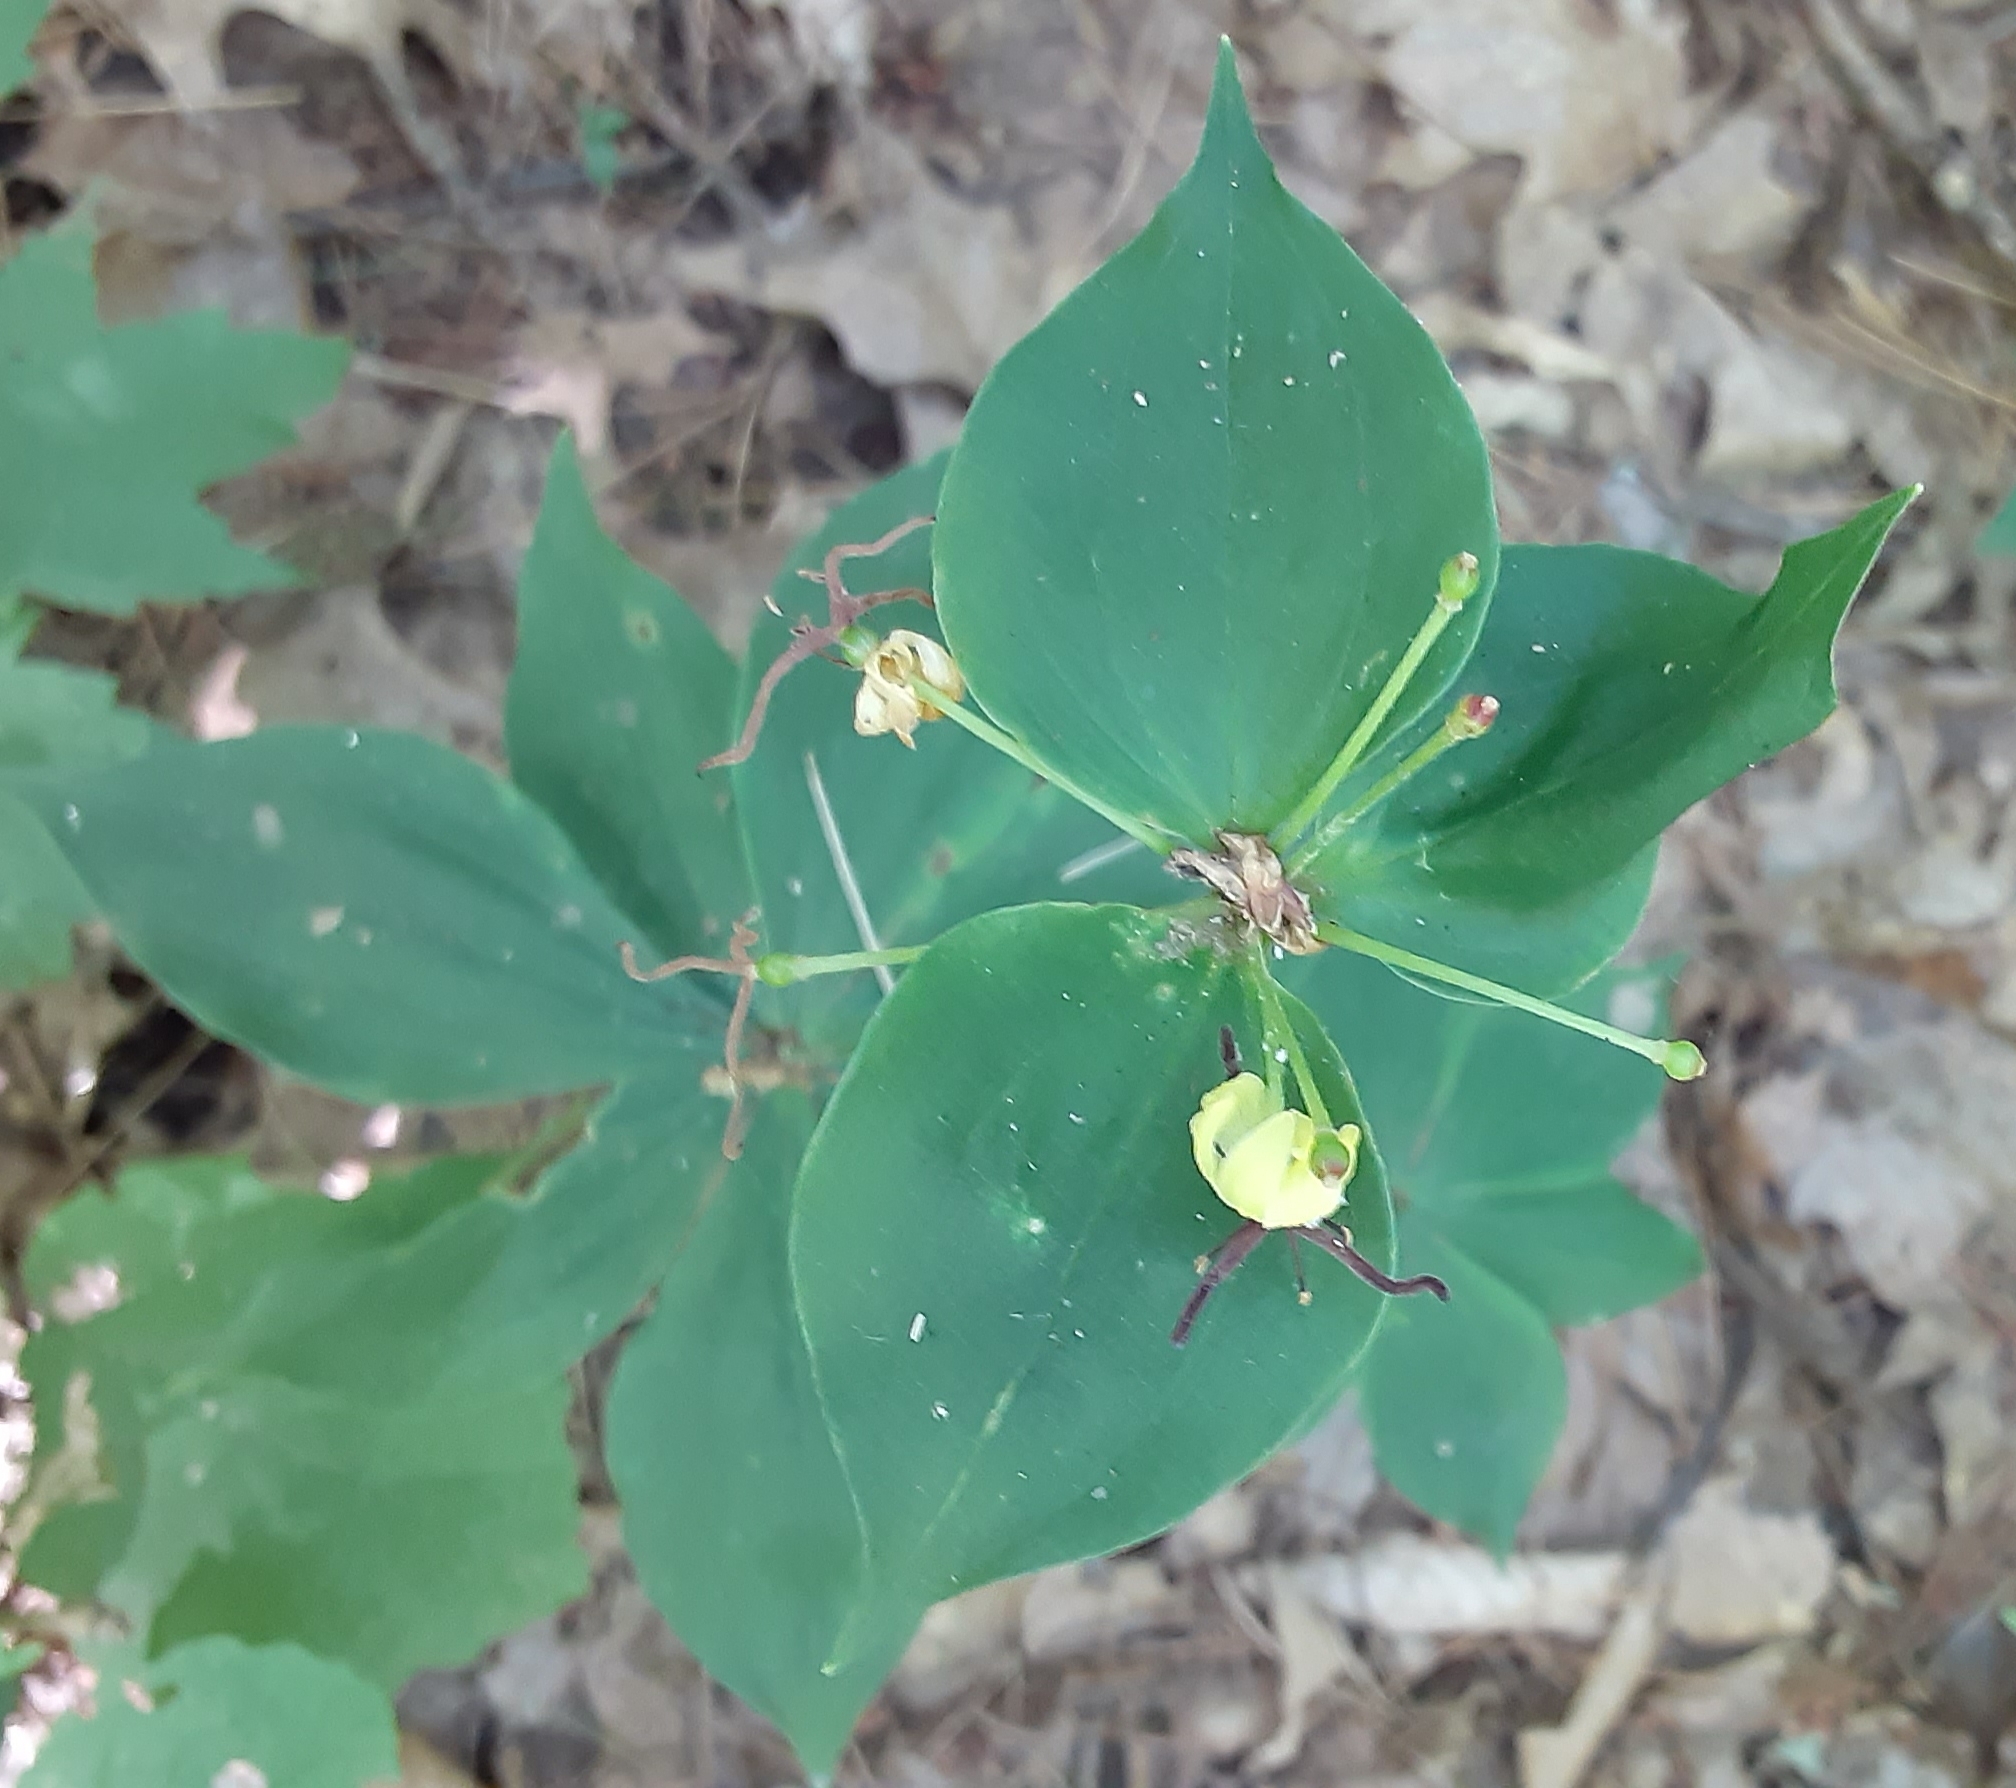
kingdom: Plantae
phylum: Tracheophyta
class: Liliopsida
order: Liliales
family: Liliaceae
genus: Medeola
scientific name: Medeola virginiana
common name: Indian cucumber-root
